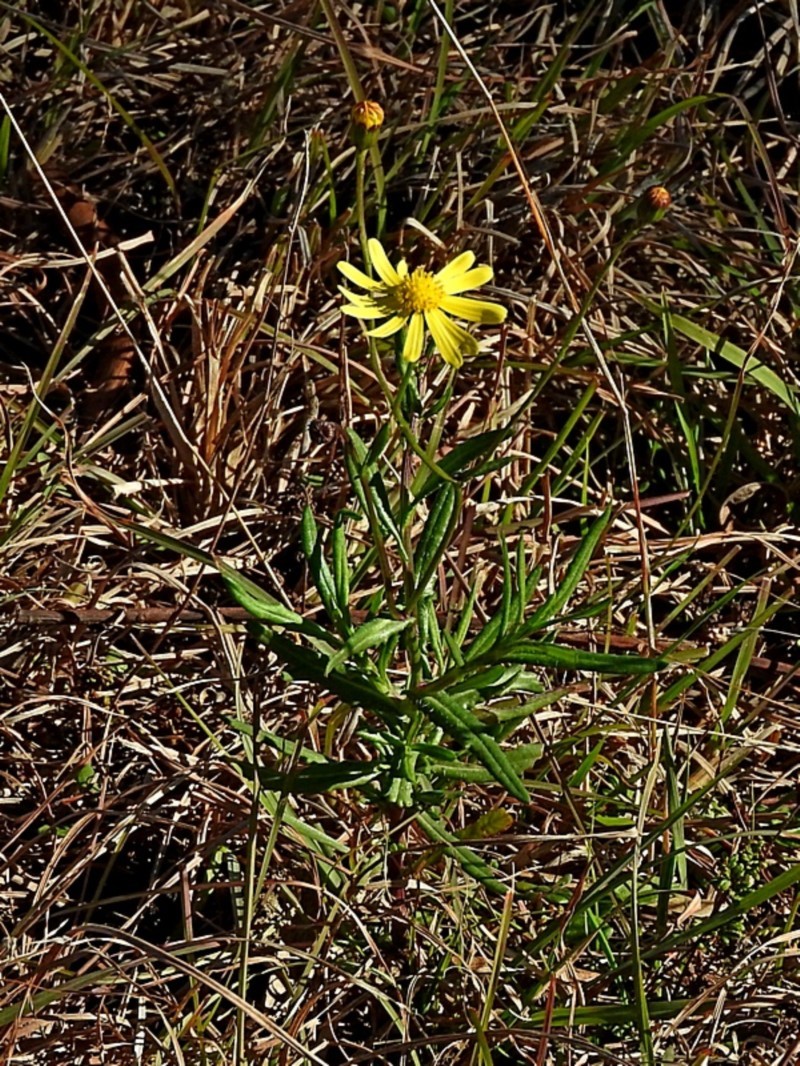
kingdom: Plantae
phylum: Tracheophyta
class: Magnoliopsida
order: Asterales
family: Asteraceae
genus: Senecio
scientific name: Senecio madagascariensis
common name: Madagascar ragwort
